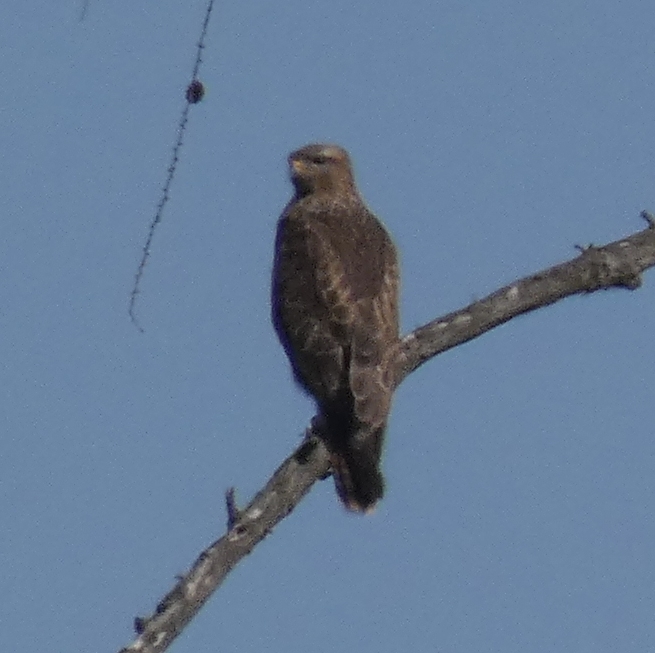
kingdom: Animalia
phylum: Chordata
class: Aves
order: Accipitriformes
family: Accipitridae
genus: Buteo
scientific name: Buteo buteo
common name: Common buzzard
